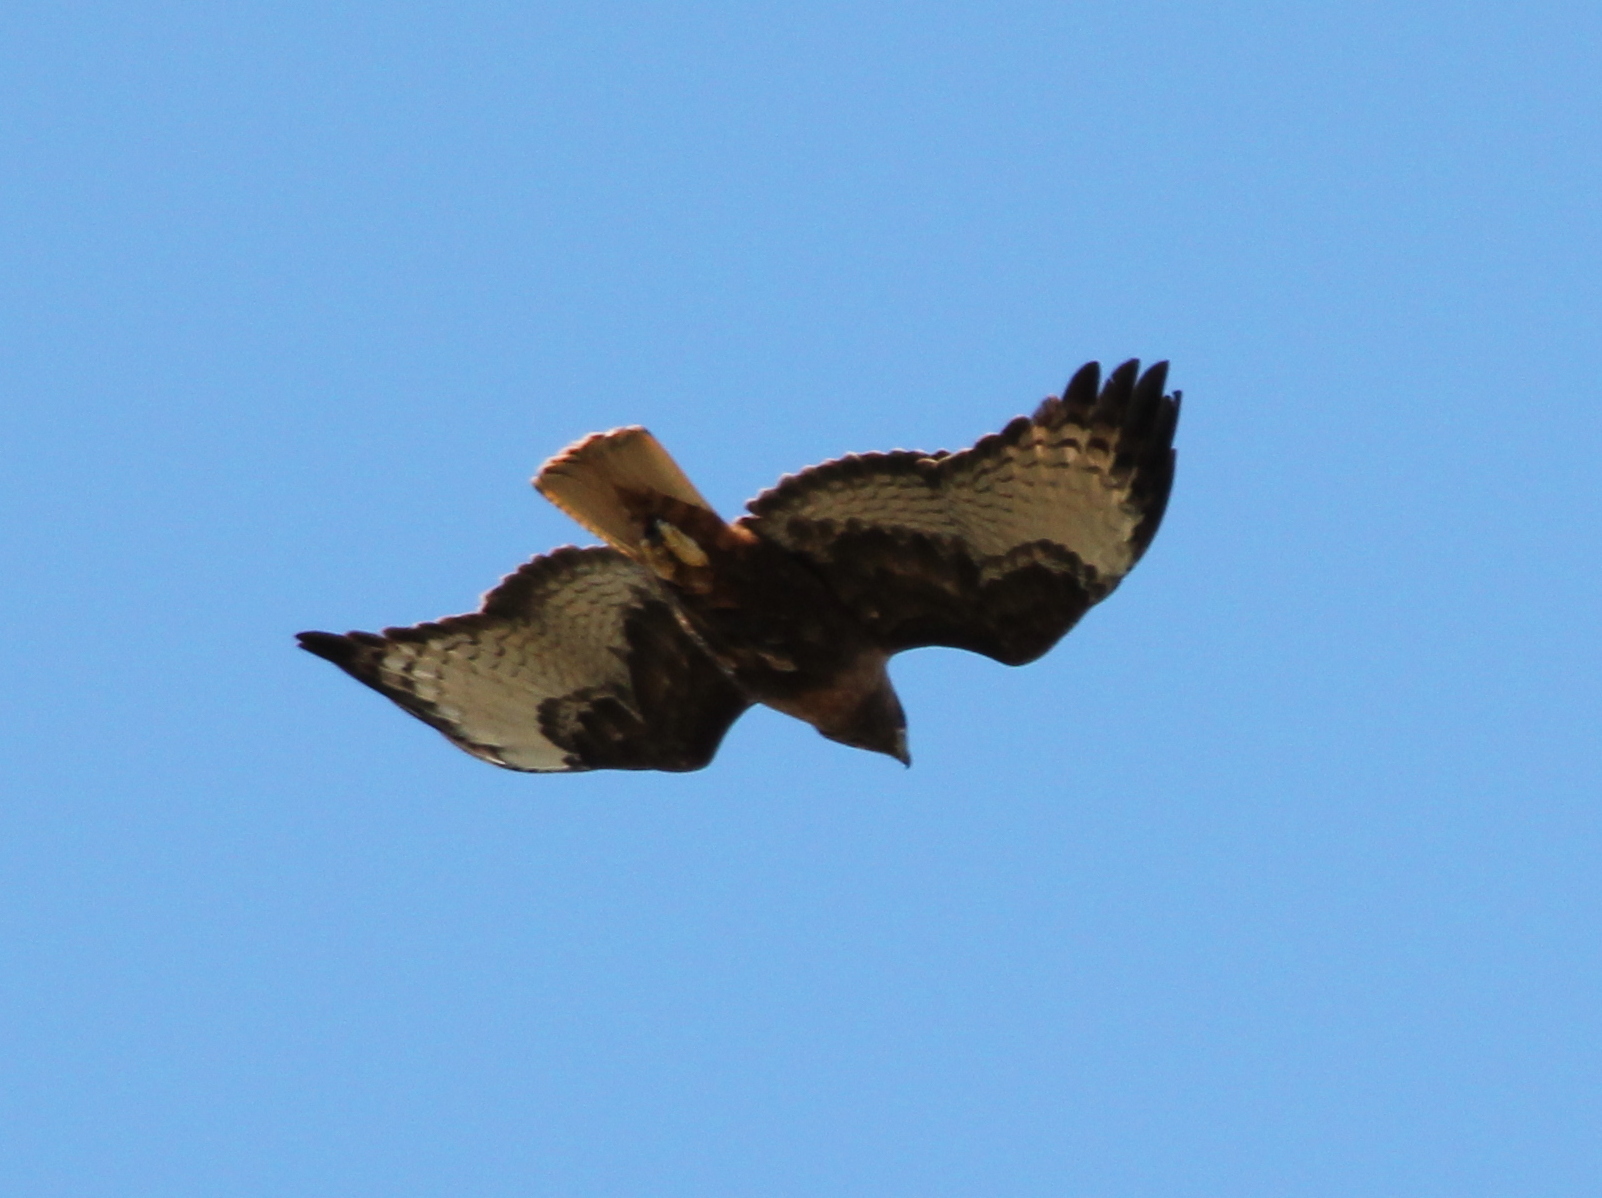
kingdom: Animalia
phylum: Chordata
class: Aves
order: Accipitriformes
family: Accipitridae
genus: Buteo
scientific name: Buteo jamaicensis
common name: Red-tailed hawk
